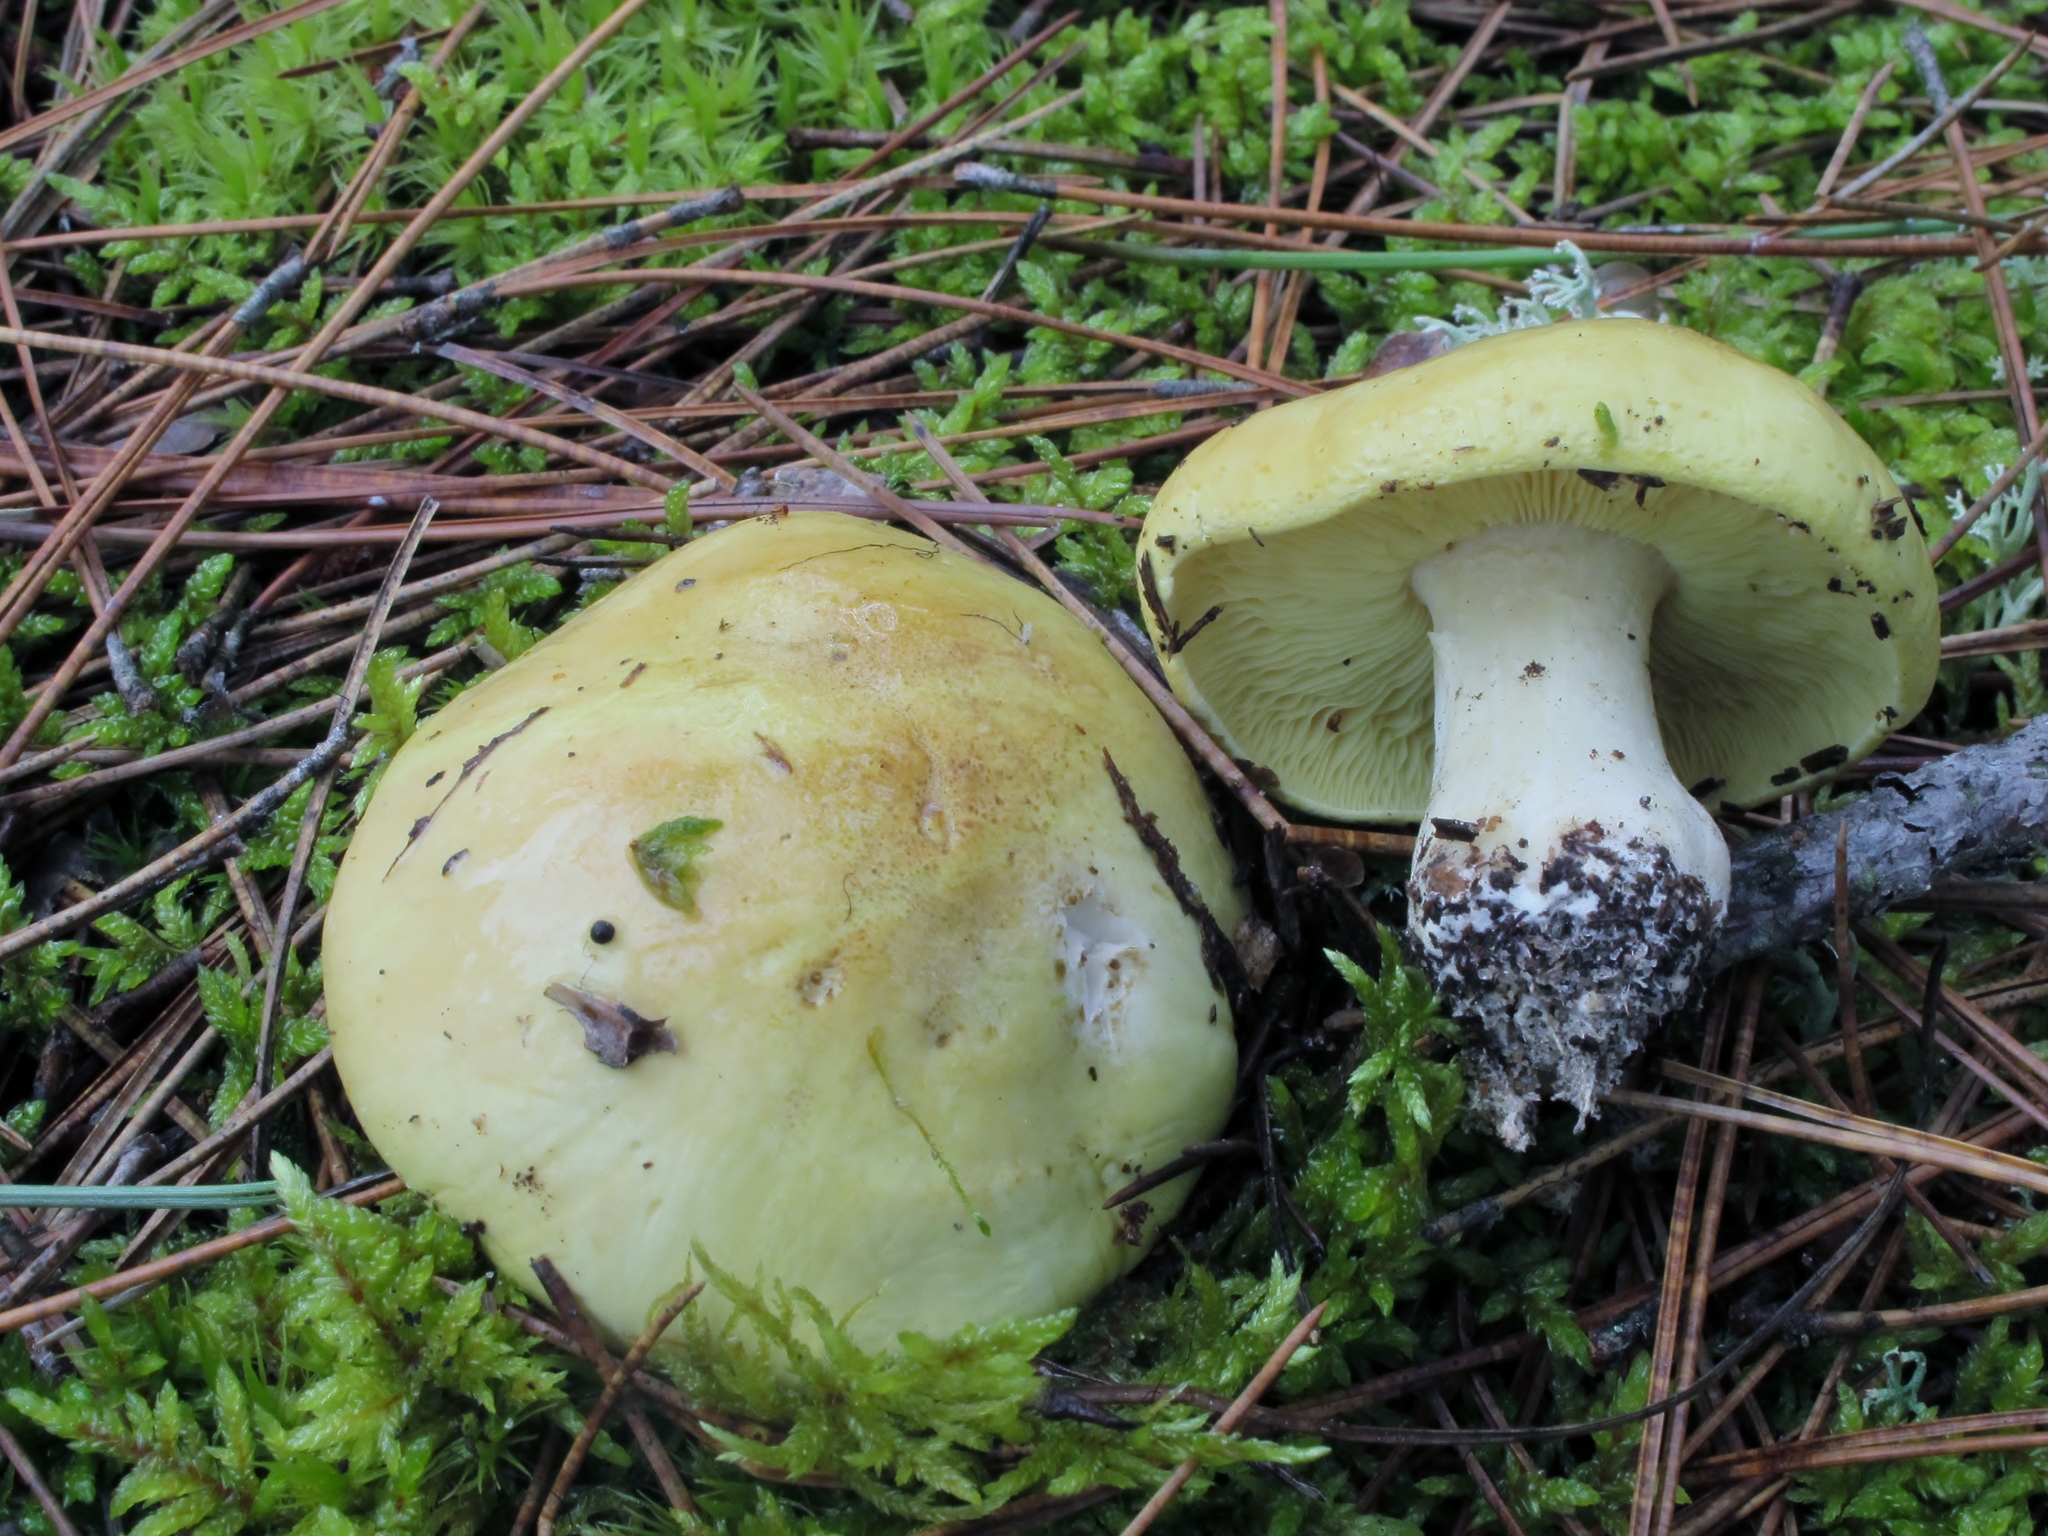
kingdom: Fungi
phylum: Basidiomycota
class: Agaricomycetes
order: Agaricales
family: Tricholomataceae
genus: Tricholoma
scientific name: Tricholoma equestre
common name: Yellow knight
